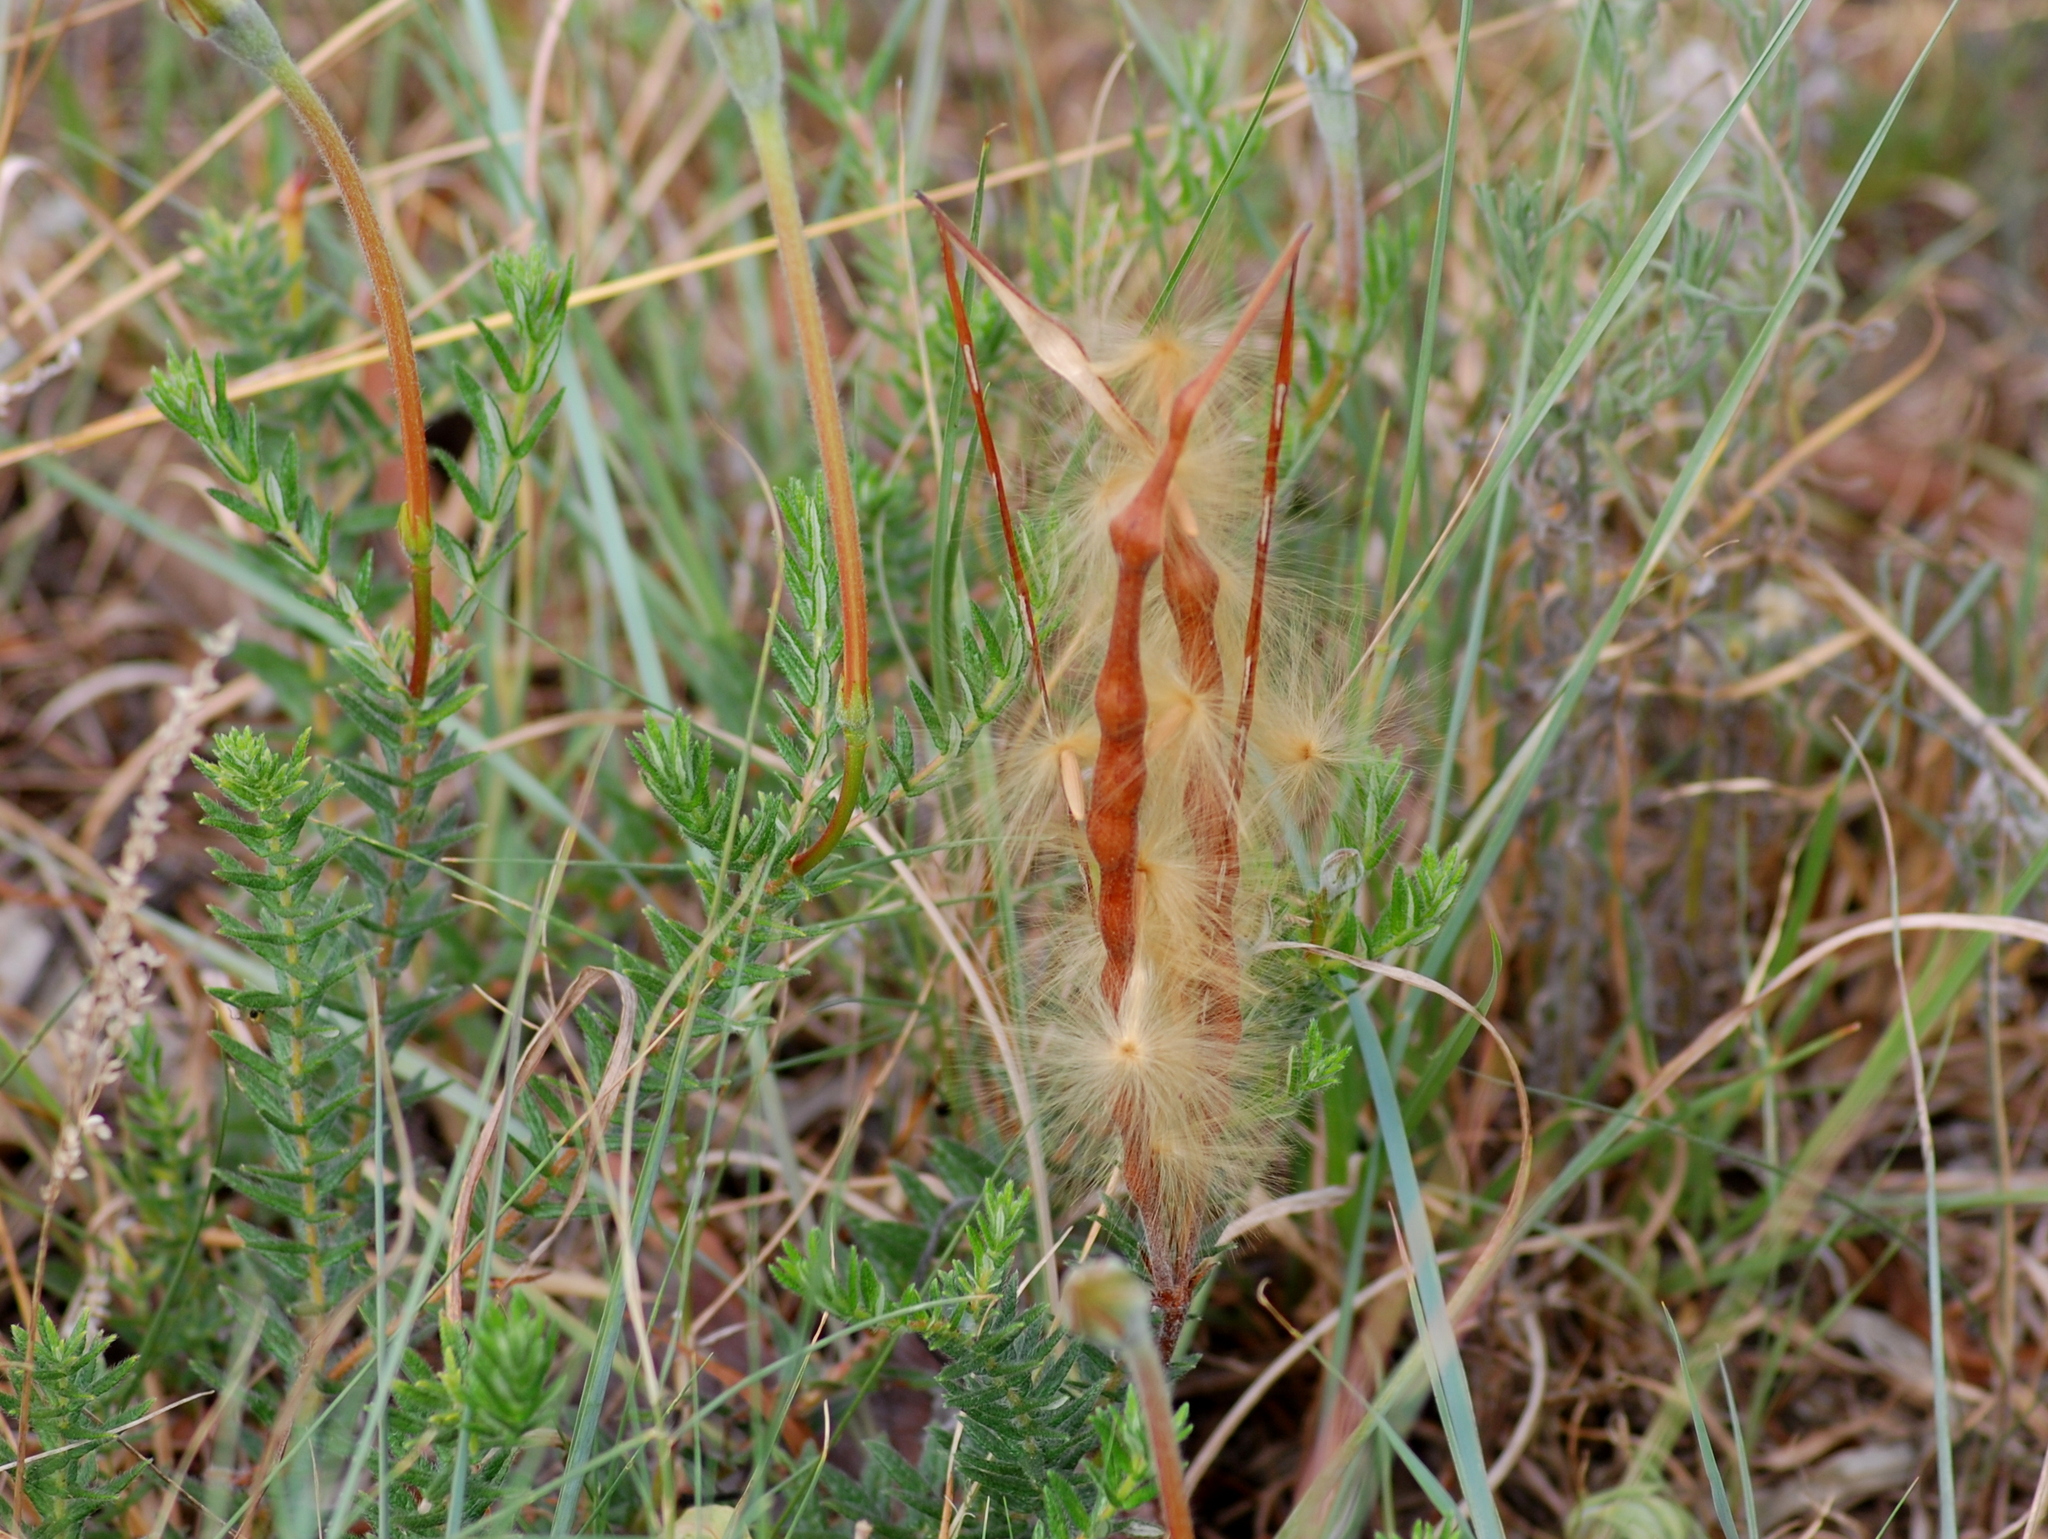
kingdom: Plantae
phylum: Tracheophyta
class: Magnoliopsida
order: Gentianales
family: Apocynaceae
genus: Mandevilla
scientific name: Mandevilla petraea
